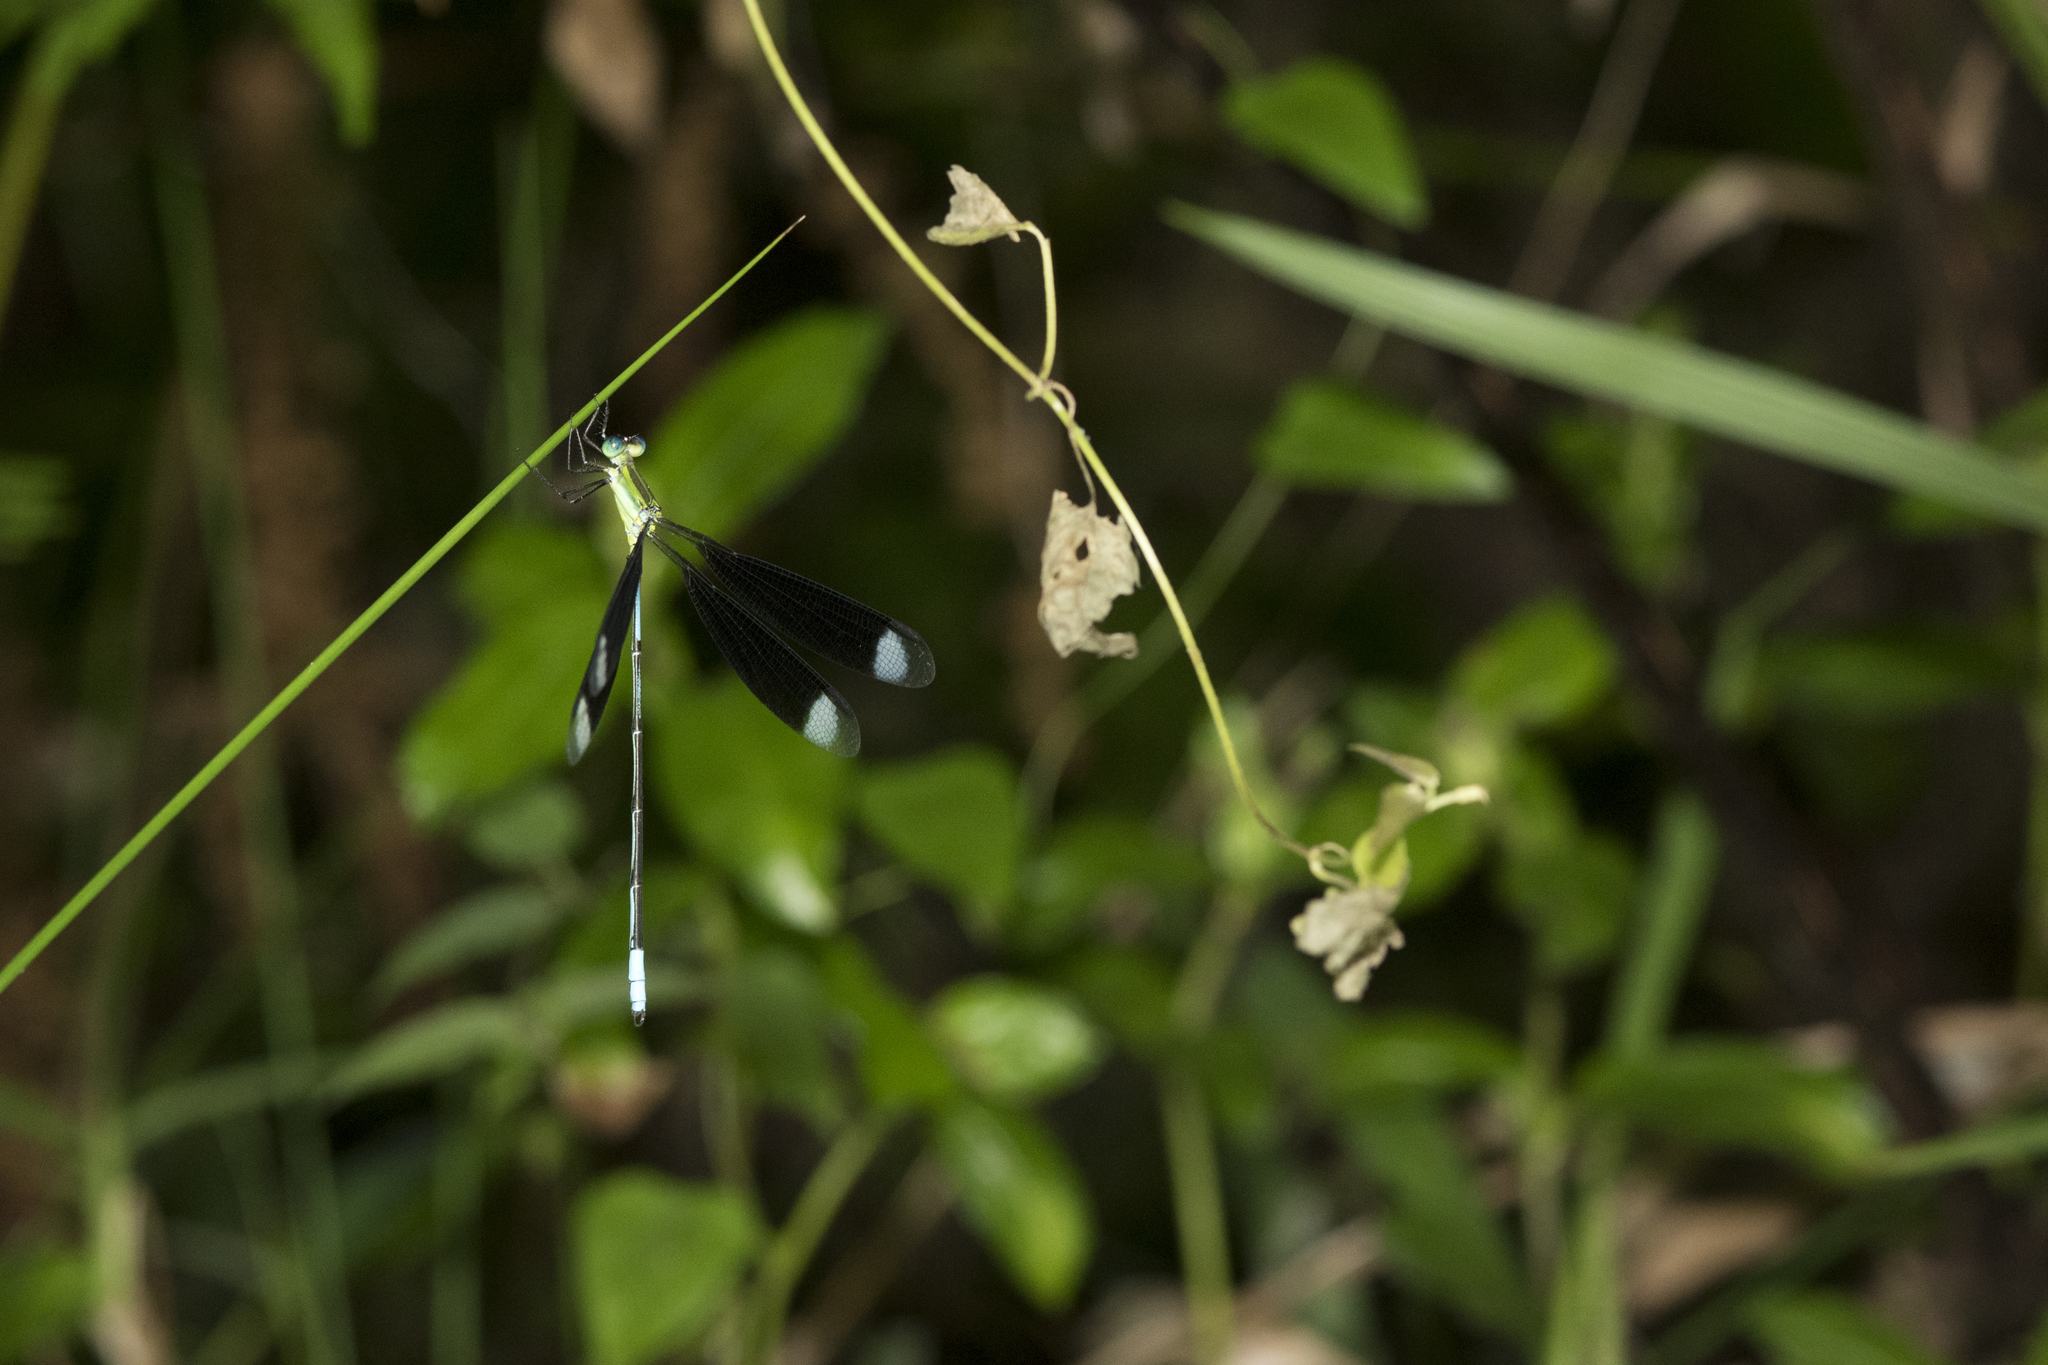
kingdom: Animalia
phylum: Arthropoda
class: Insecta
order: Odonata
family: Lestidae
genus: Orolestes
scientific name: Orolestes selysi
